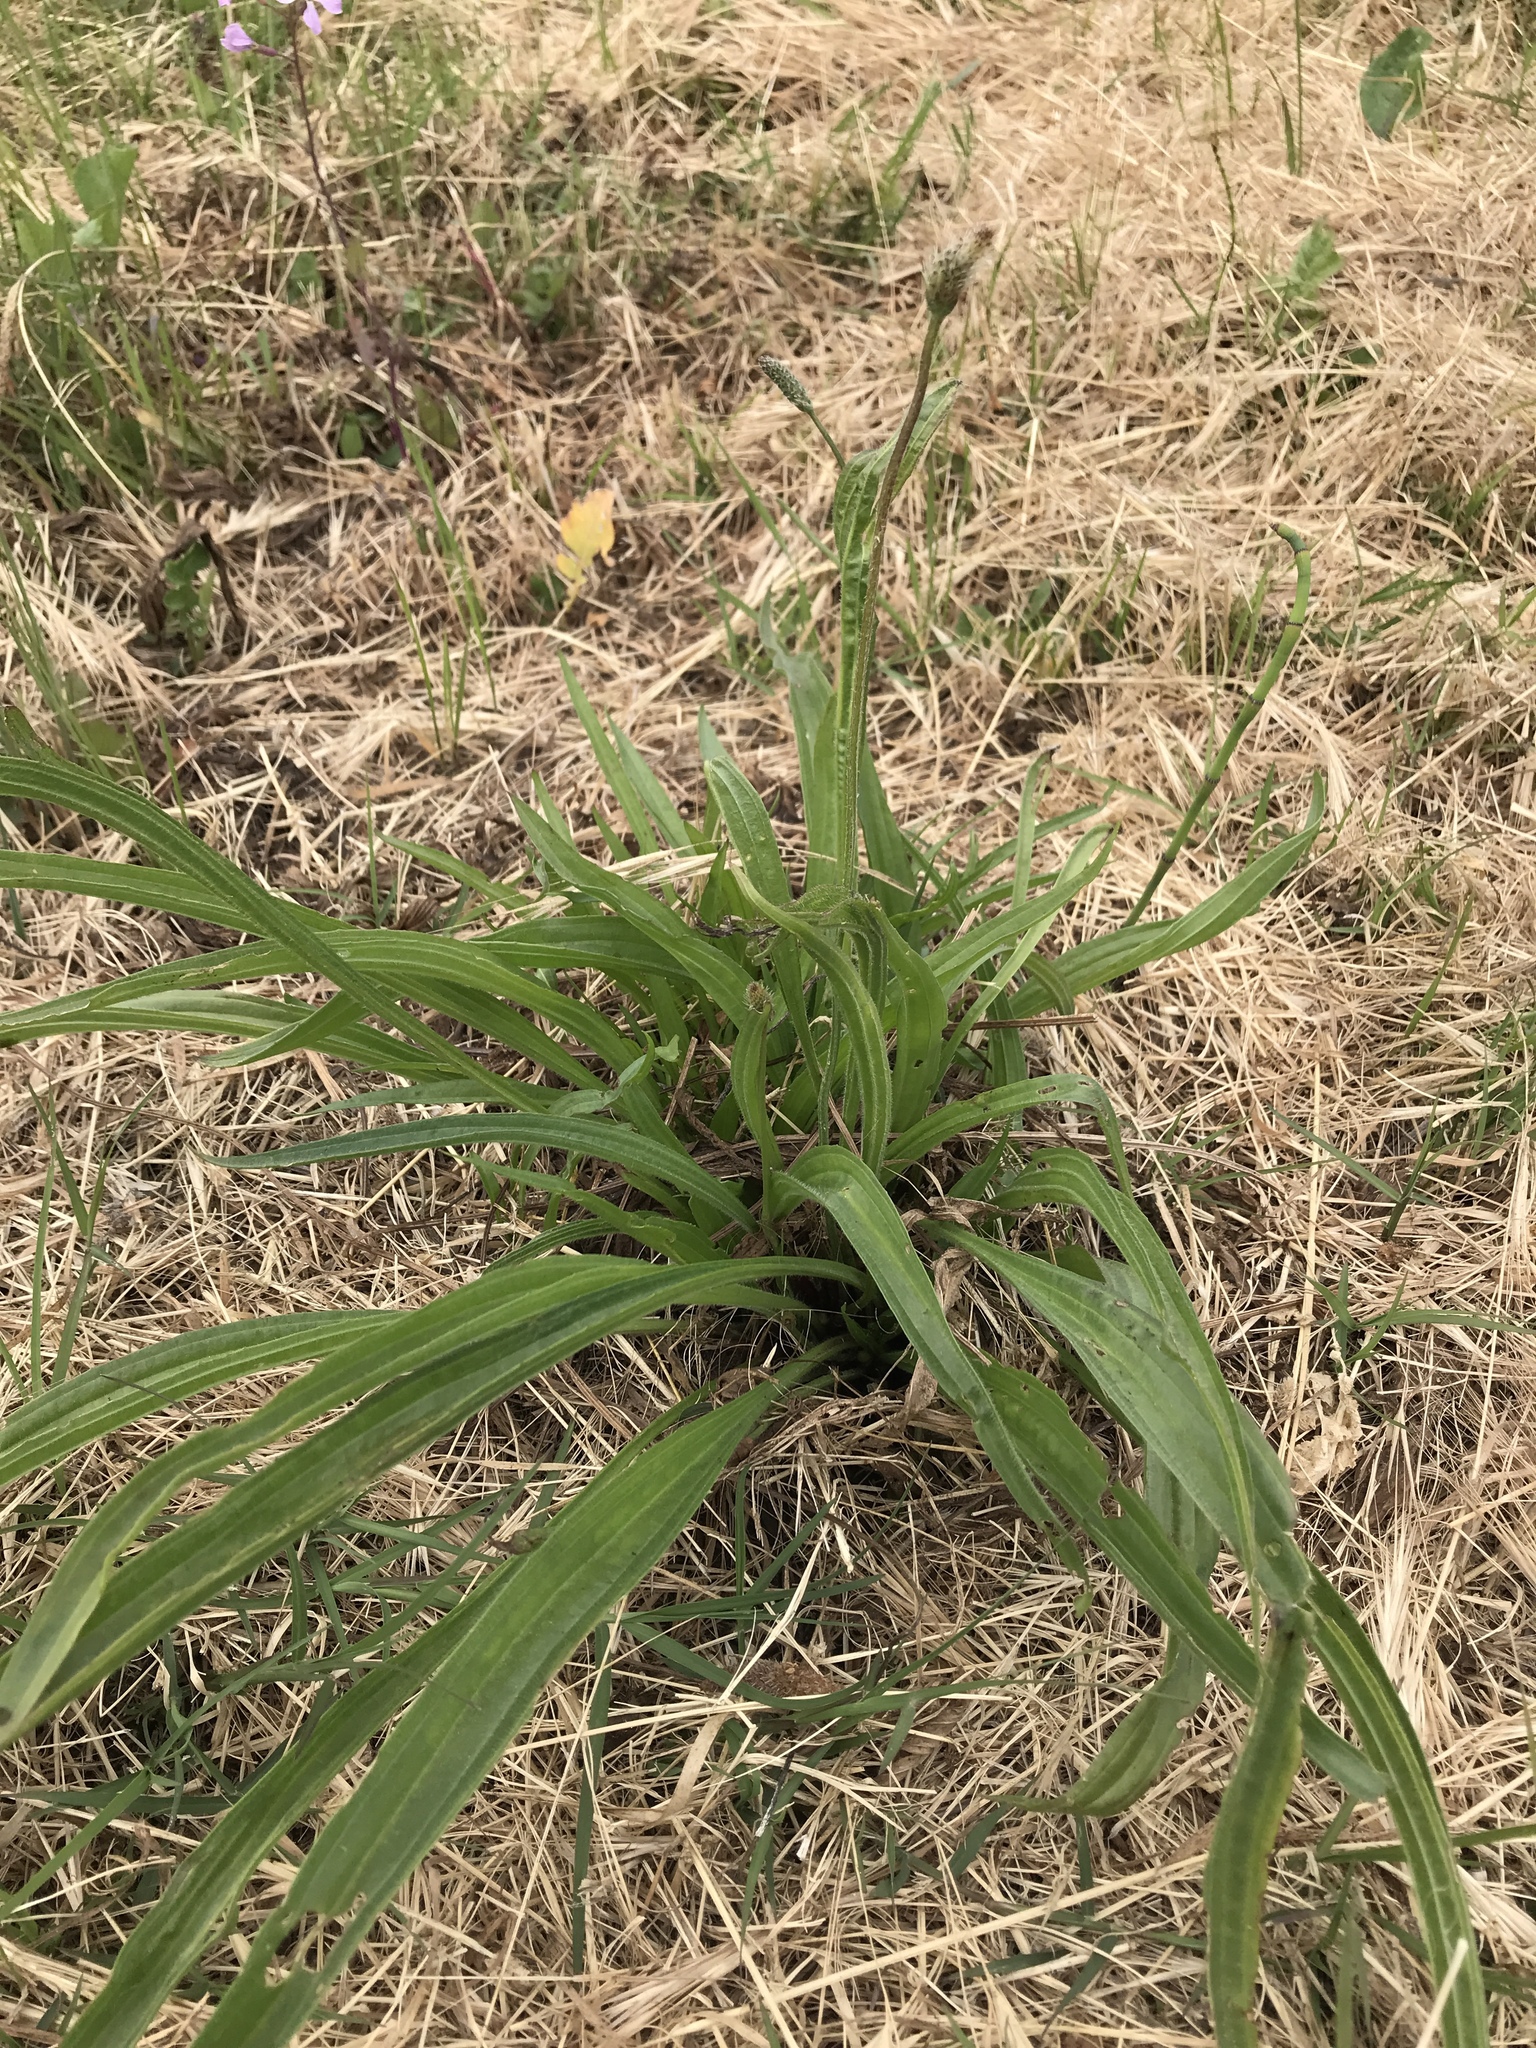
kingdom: Plantae
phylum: Tracheophyta
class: Magnoliopsida
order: Lamiales
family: Plantaginaceae
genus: Plantago
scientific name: Plantago lanceolata
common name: Ribwort plantain
